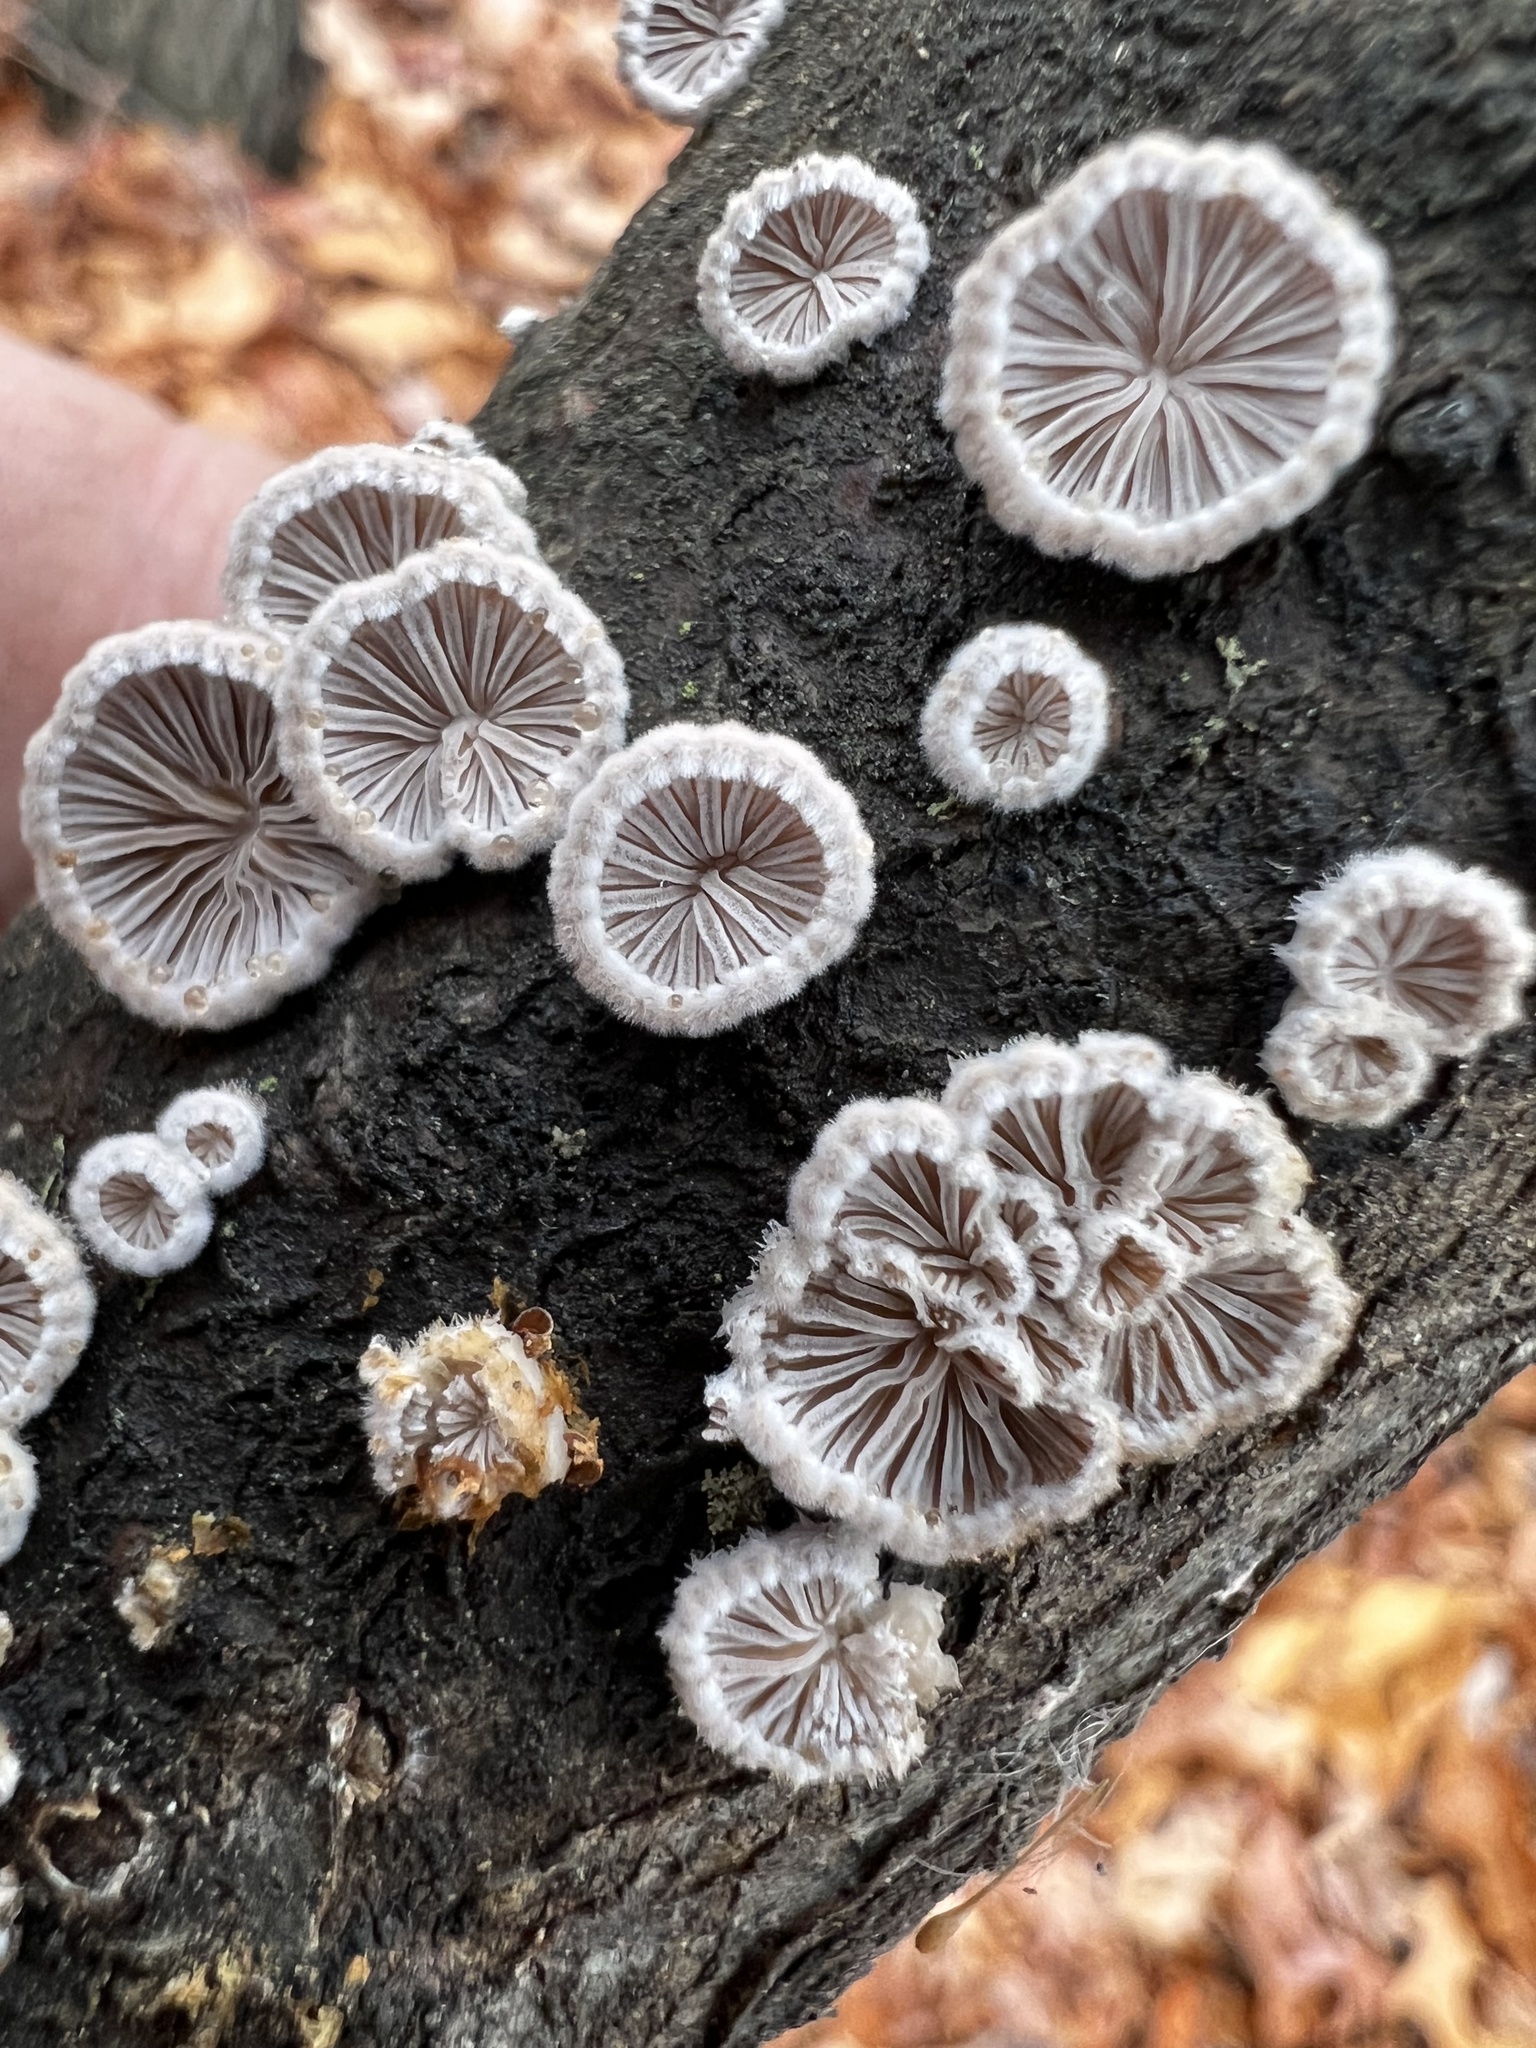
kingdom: Fungi
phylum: Basidiomycota
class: Agaricomycetes
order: Agaricales
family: Schizophyllaceae
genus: Schizophyllum
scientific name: Schizophyllum commune
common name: Common porecrust
